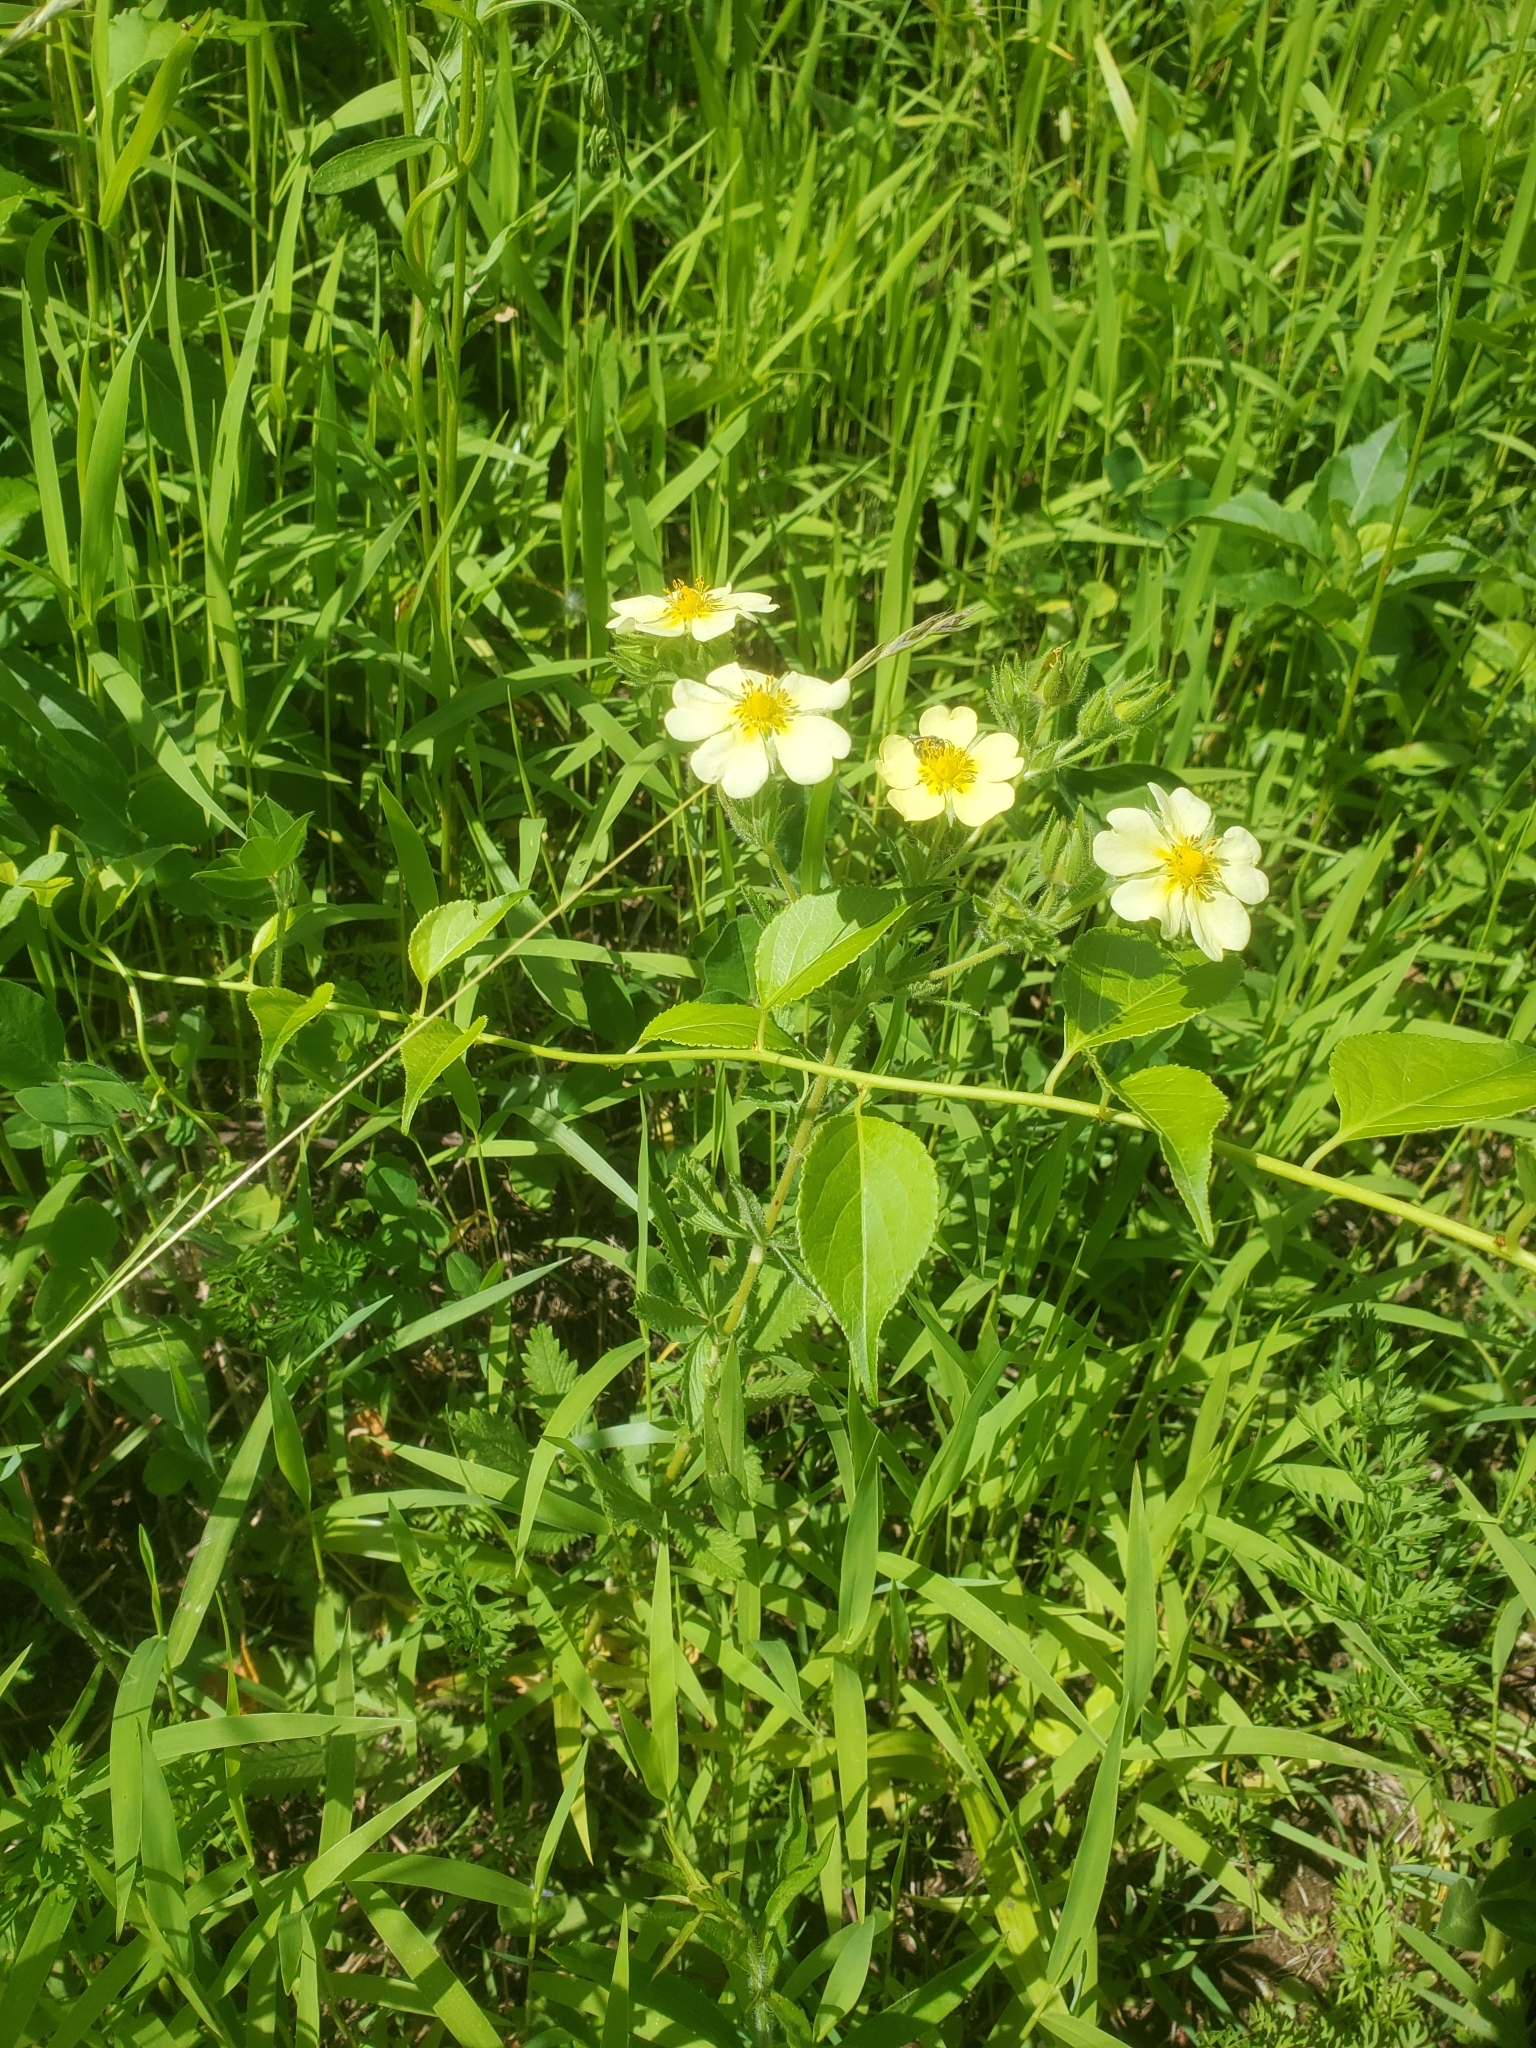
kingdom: Plantae
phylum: Tracheophyta
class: Magnoliopsida
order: Rosales
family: Rosaceae
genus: Potentilla
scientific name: Potentilla recta
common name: Sulphur cinquefoil
